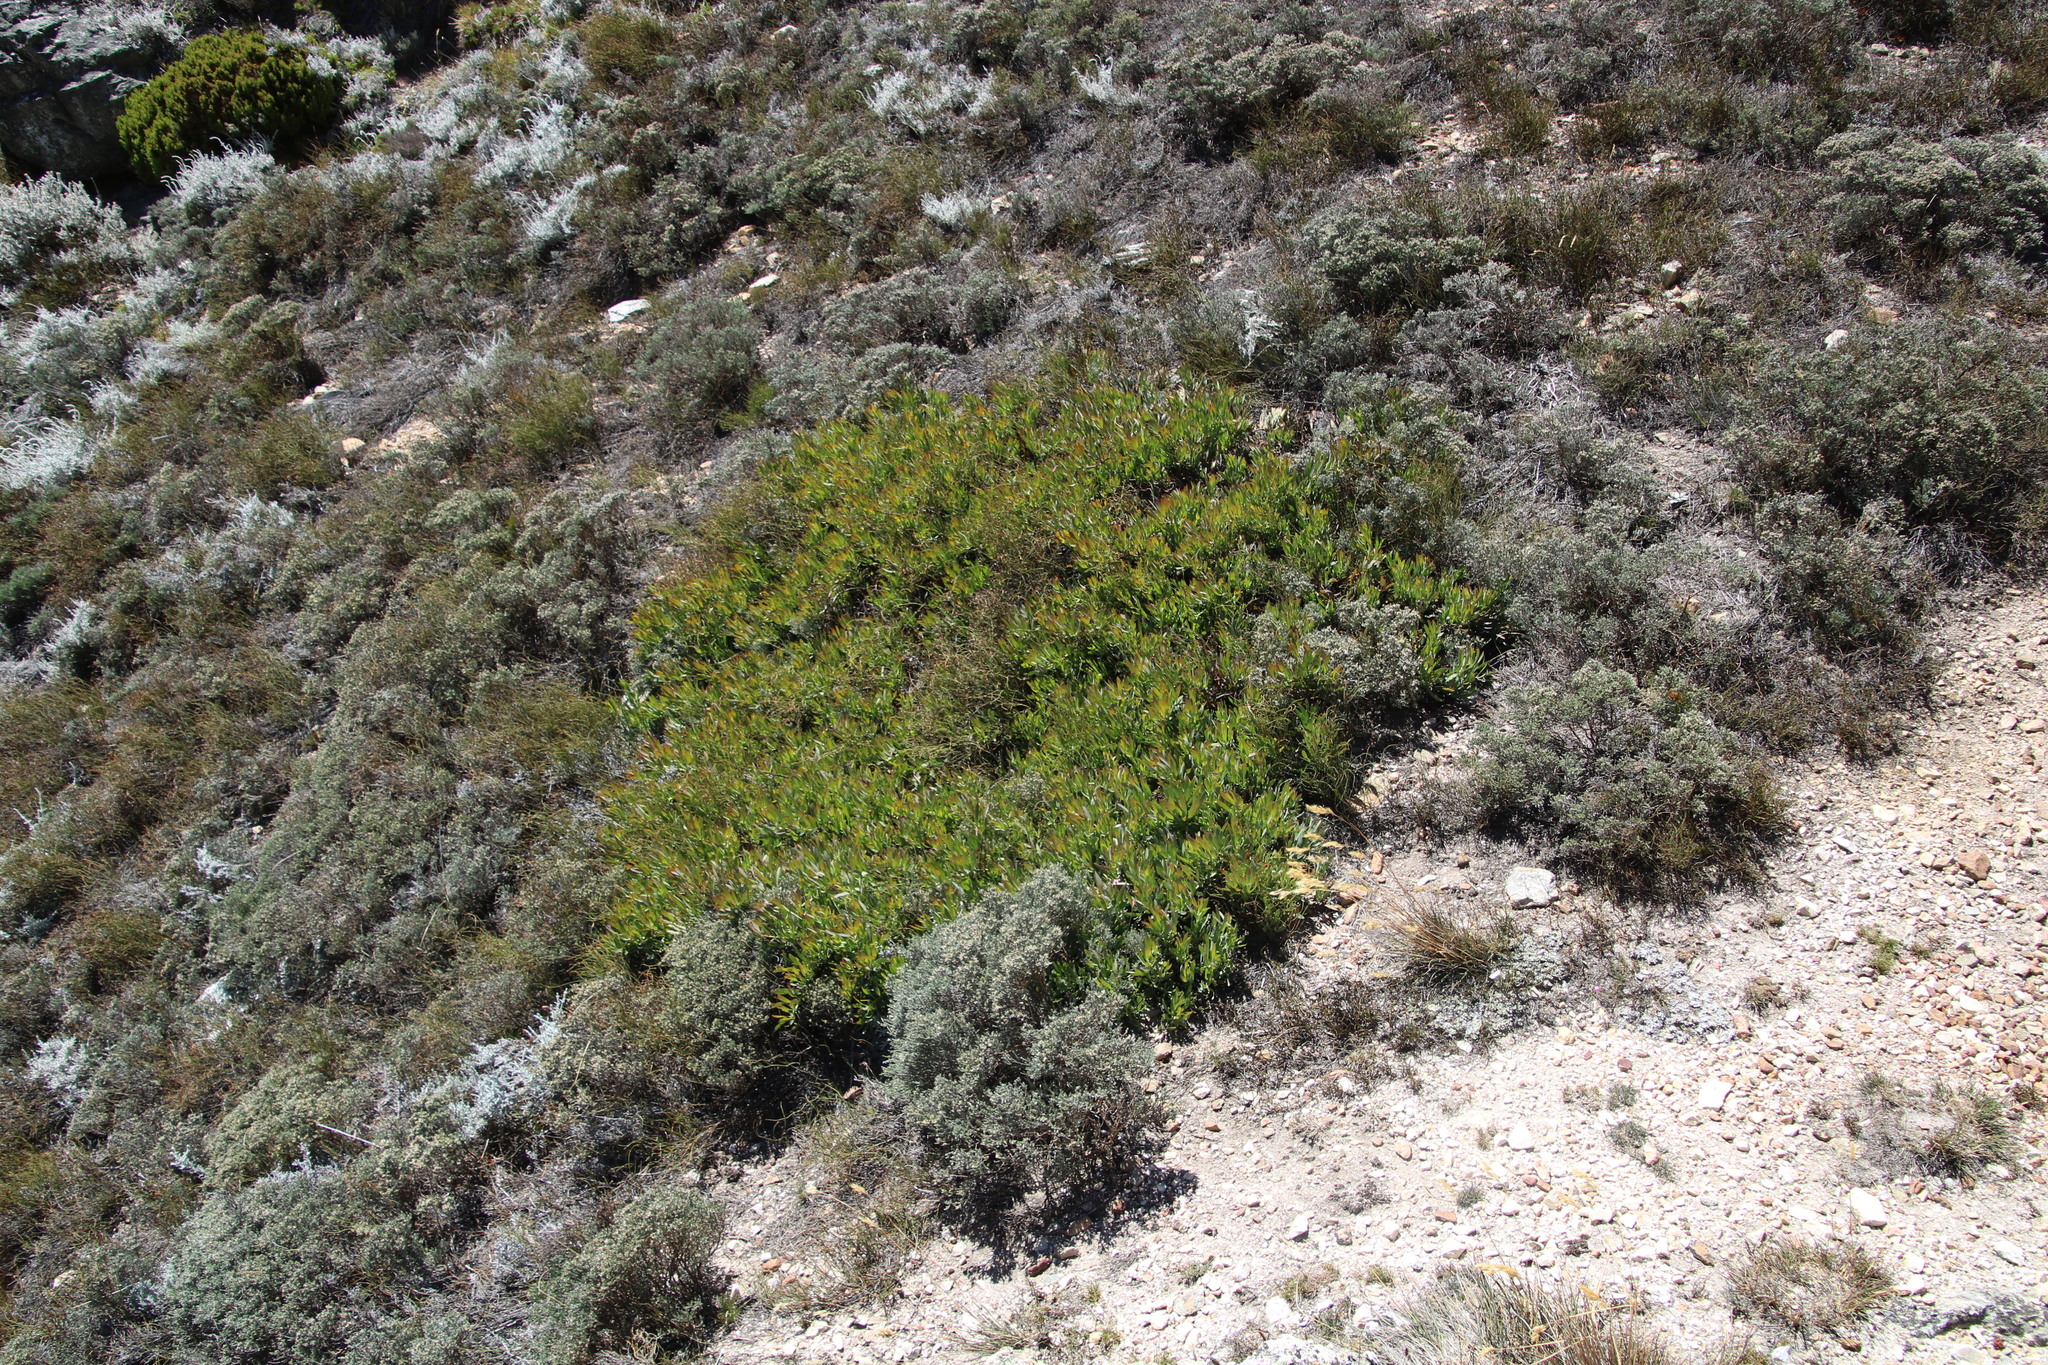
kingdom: Plantae
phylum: Tracheophyta
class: Magnoliopsida
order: Proteales
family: Proteaceae
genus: Protea
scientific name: Protea effusa
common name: Scarlet sugarbush
